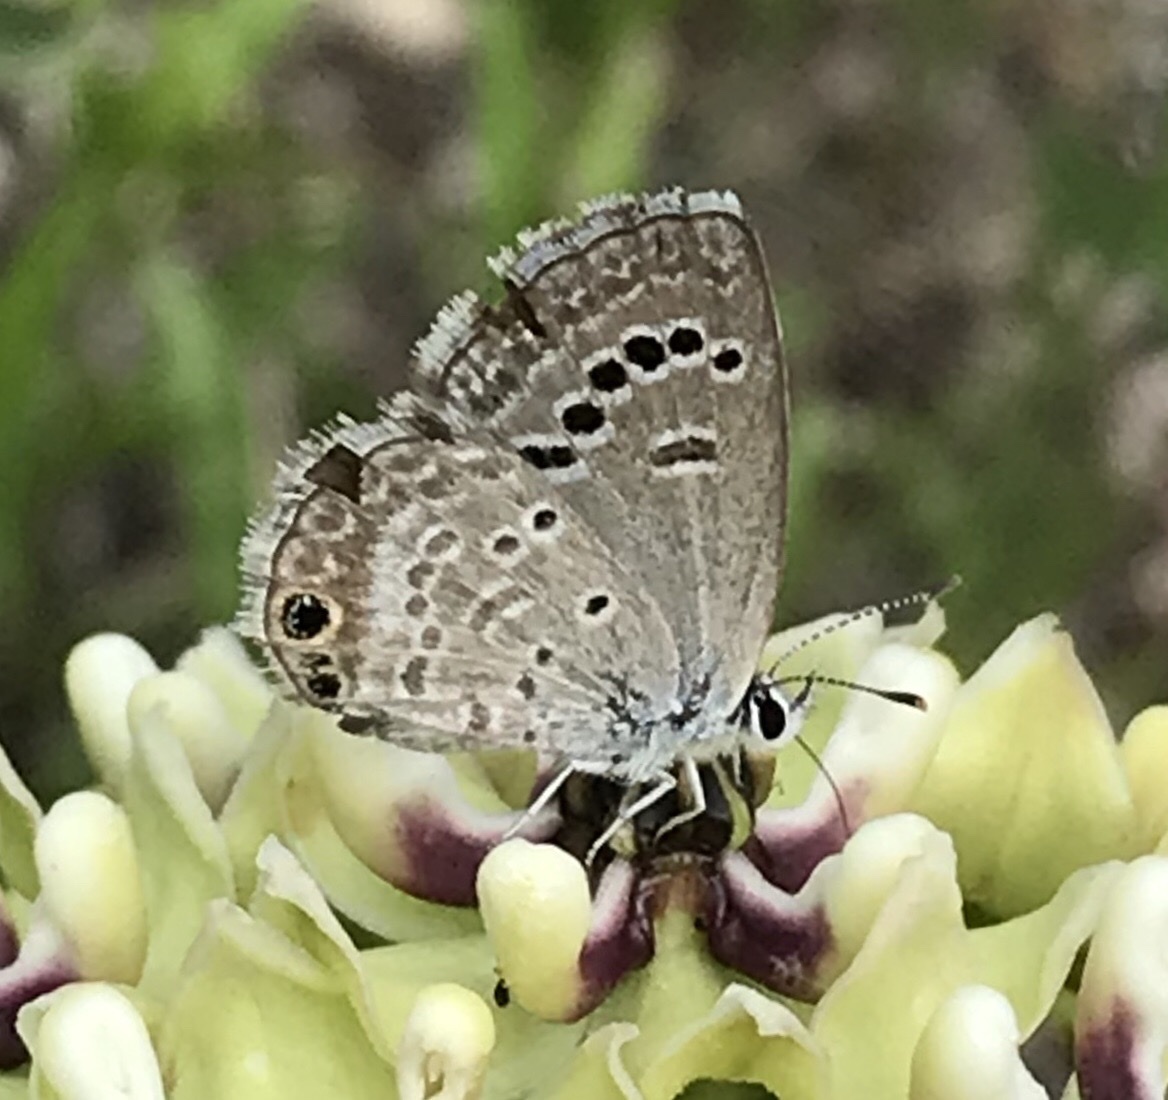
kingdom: Animalia
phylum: Arthropoda
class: Insecta
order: Lepidoptera
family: Lycaenidae
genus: Echinargus
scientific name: Echinargus isola
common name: Reakirt's blue
